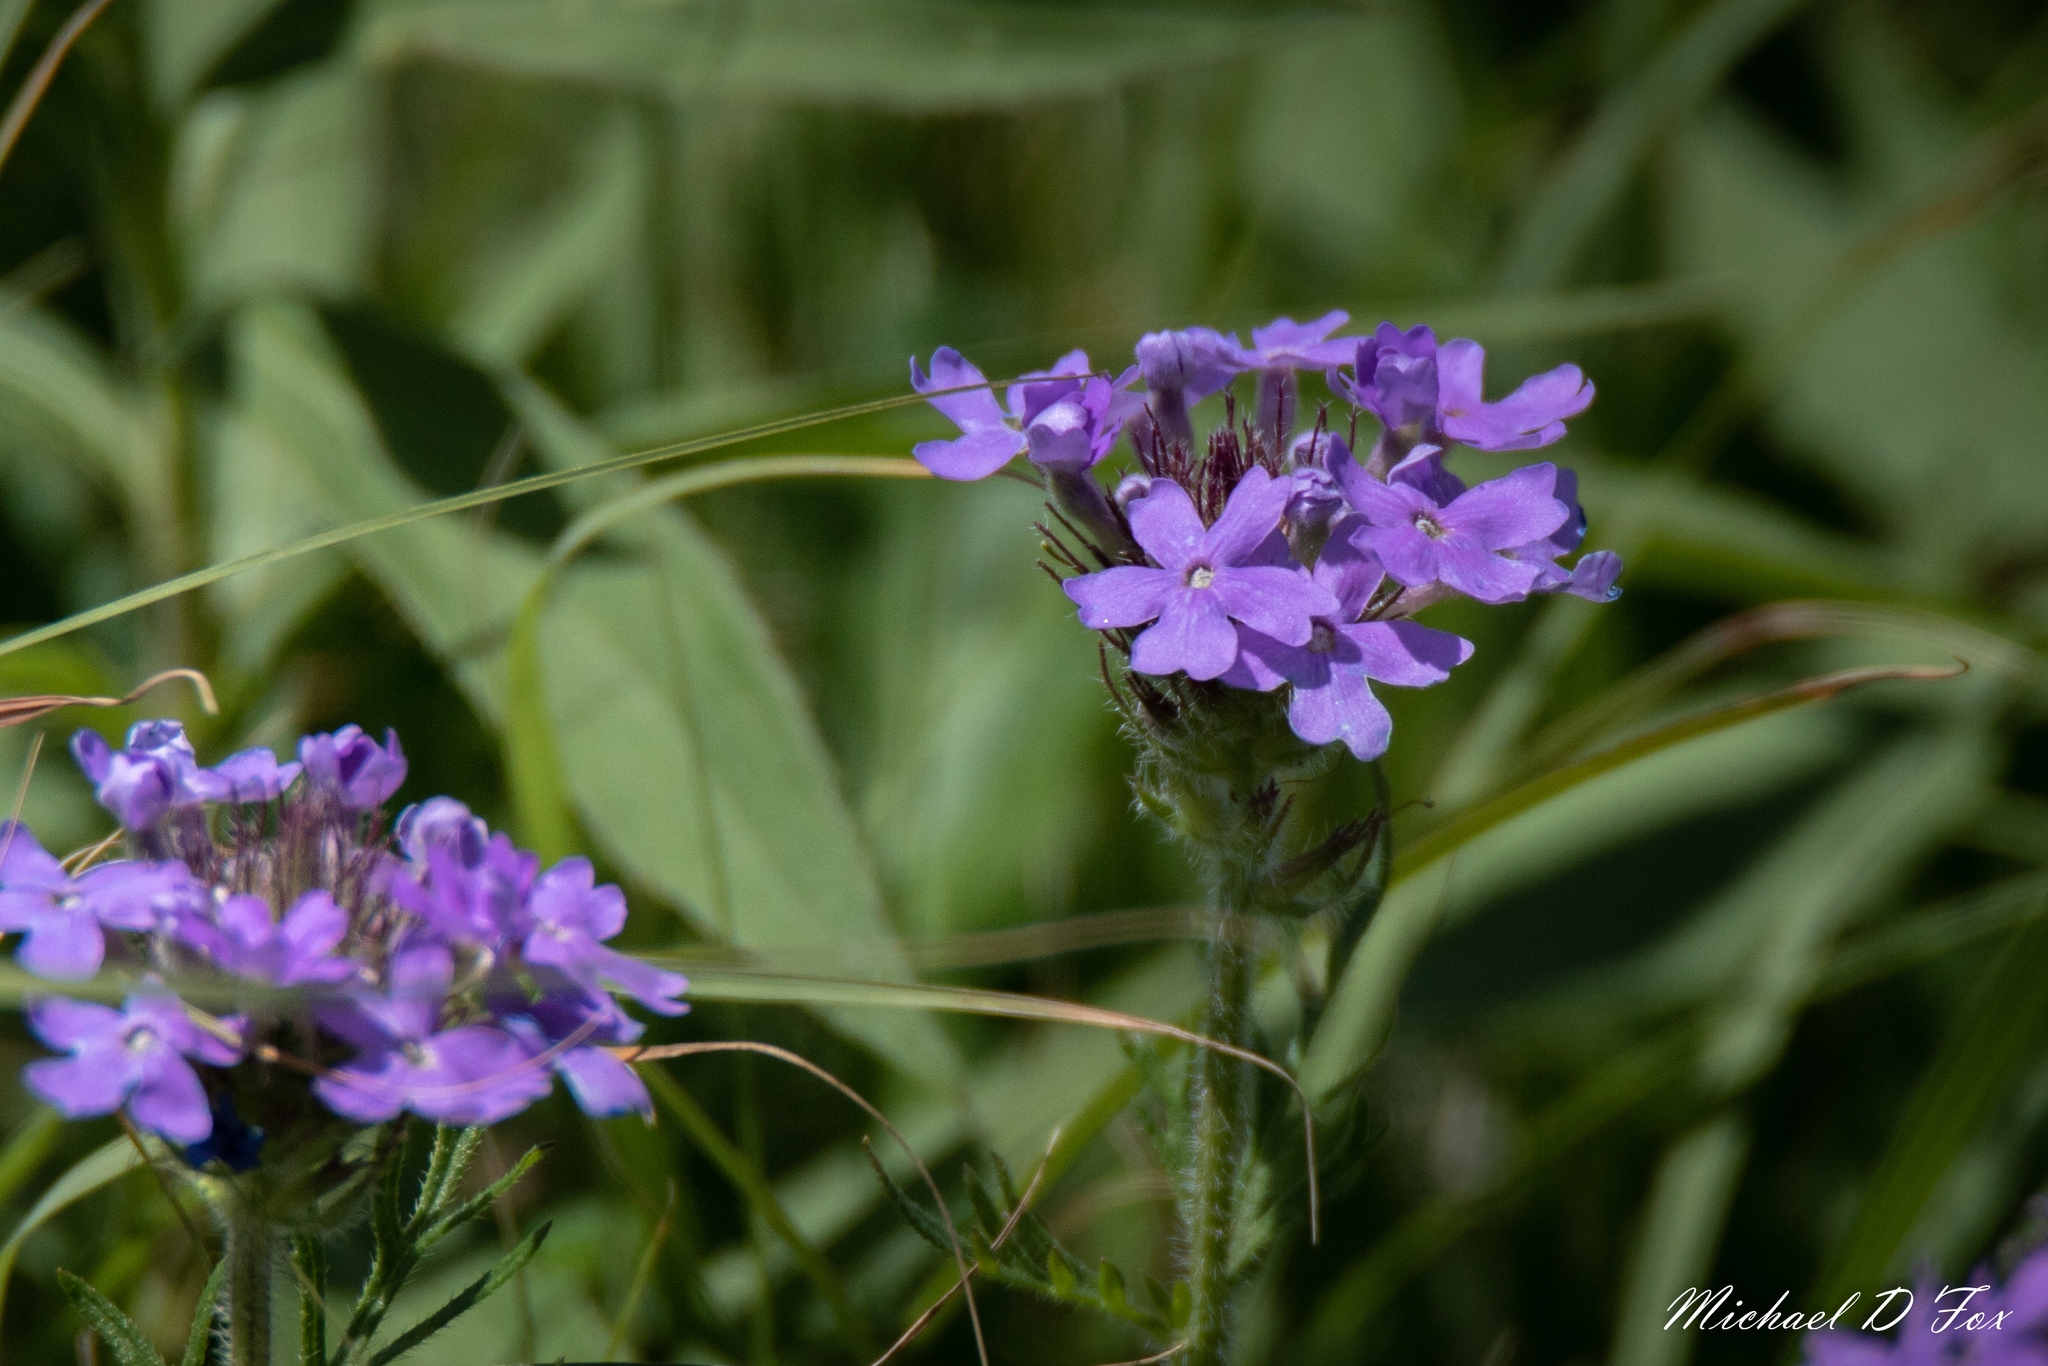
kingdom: Plantae
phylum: Tracheophyta
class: Magnoliopsida
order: Lamiales
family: Verbenaceae
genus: Verbena
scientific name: Verbena bipinnatifida
